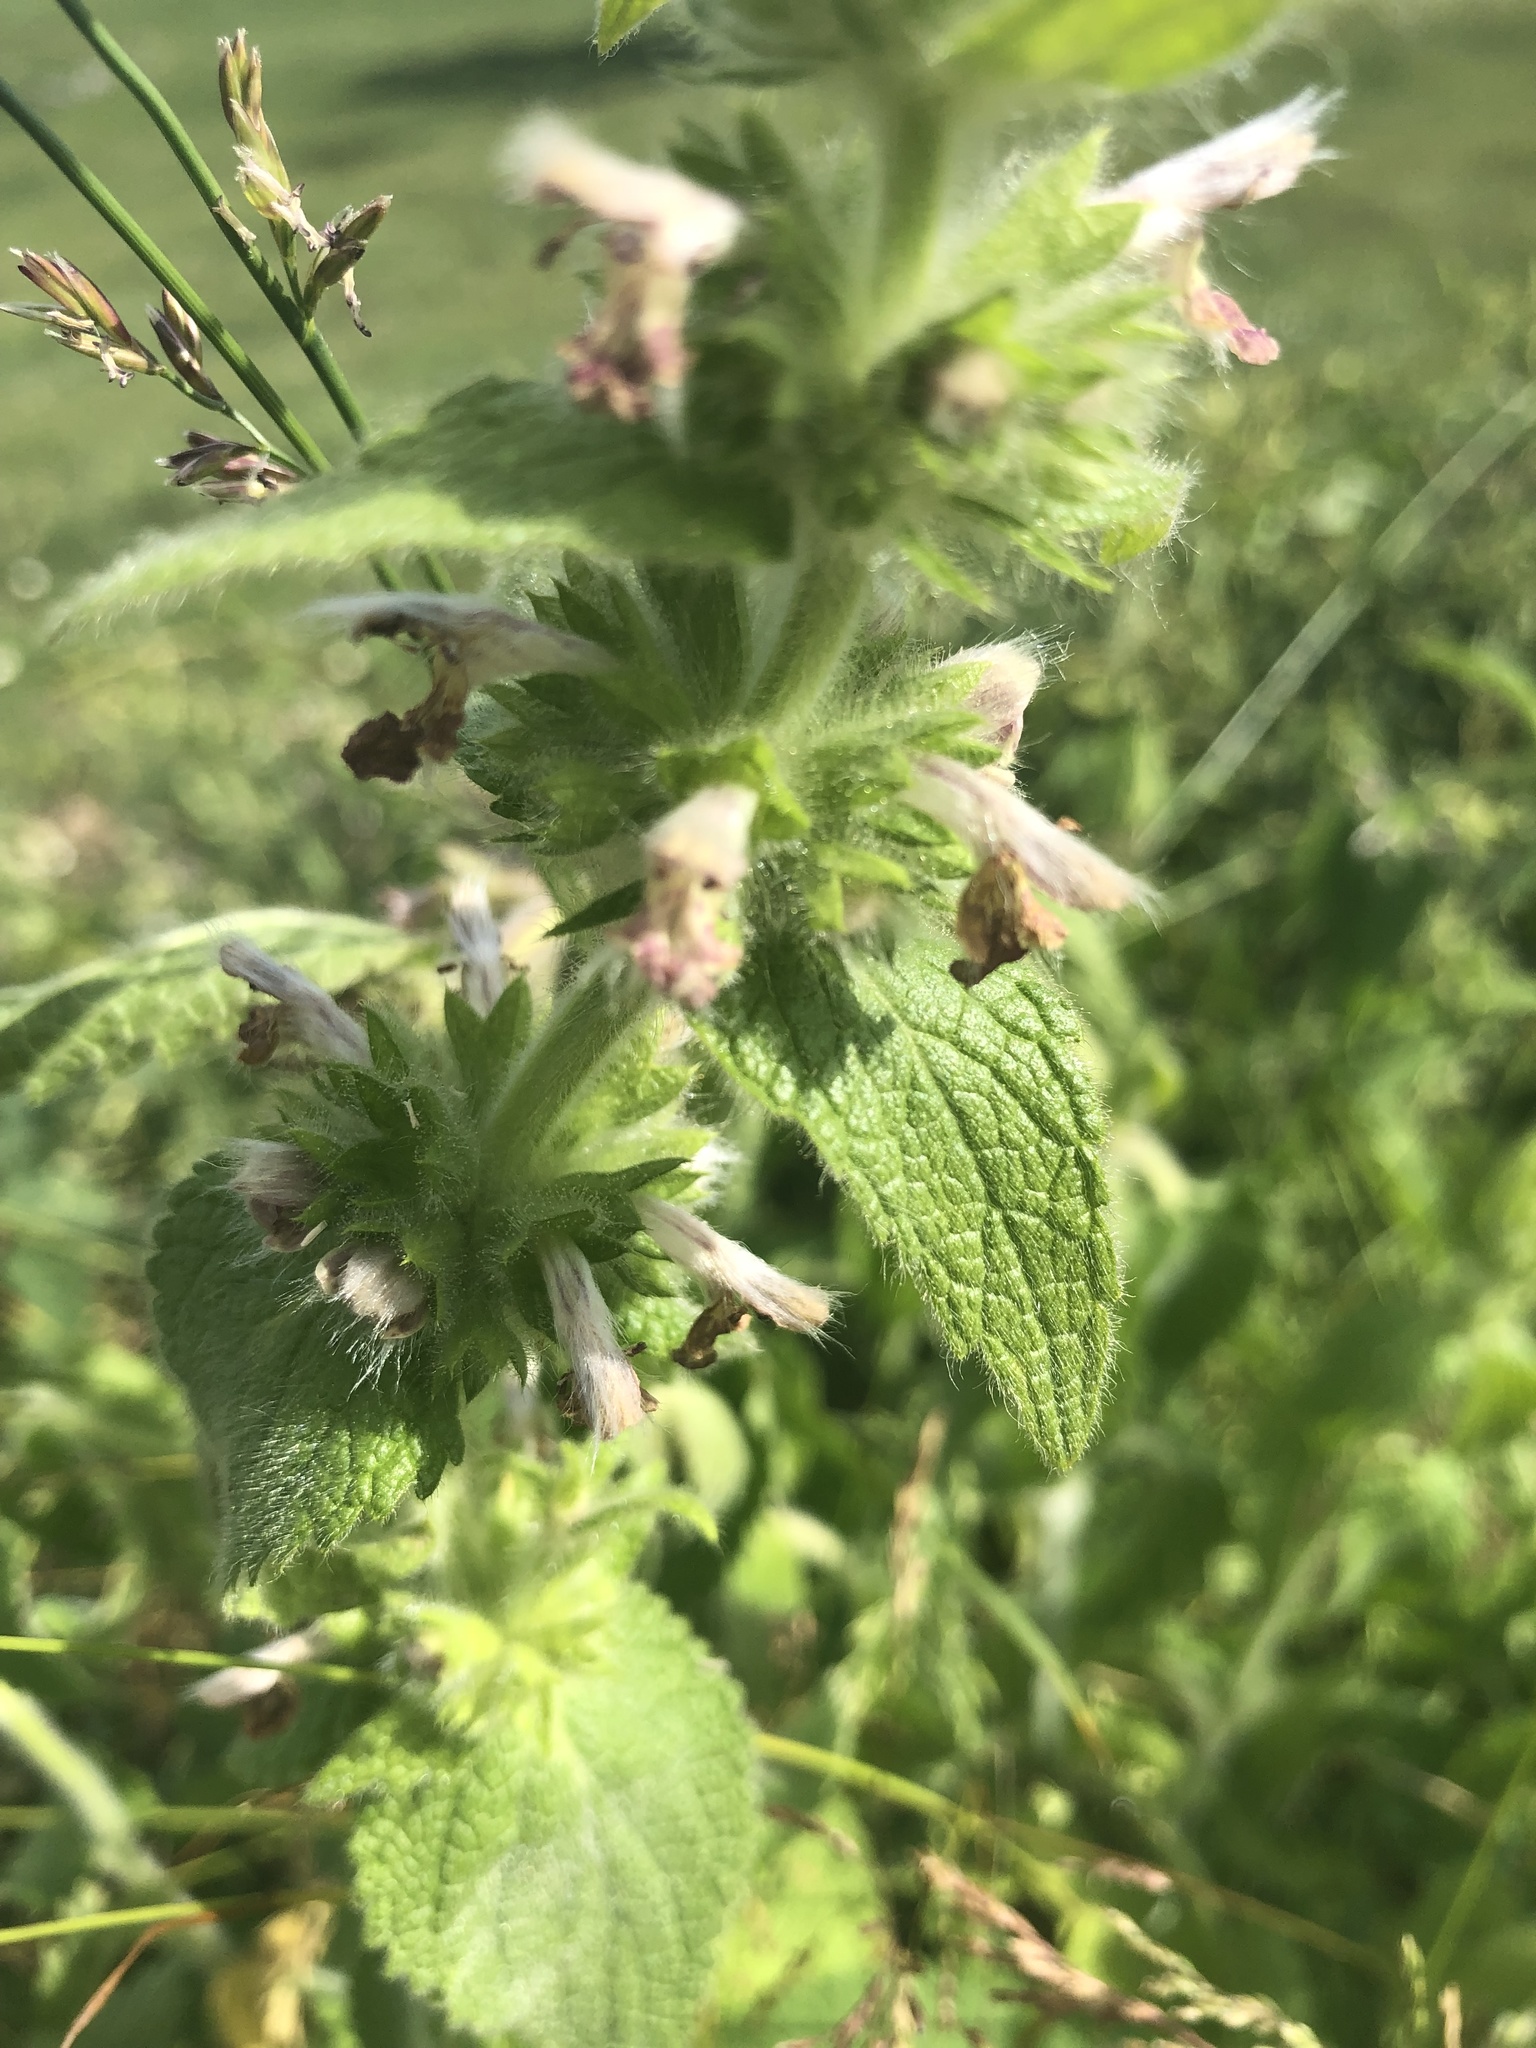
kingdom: Plantae
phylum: Tracheophyta
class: Magnoliopsida
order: Lamiales
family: Lamiaceae
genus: Stachys
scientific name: Stachys recta
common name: Perennial yellow-woundwort
